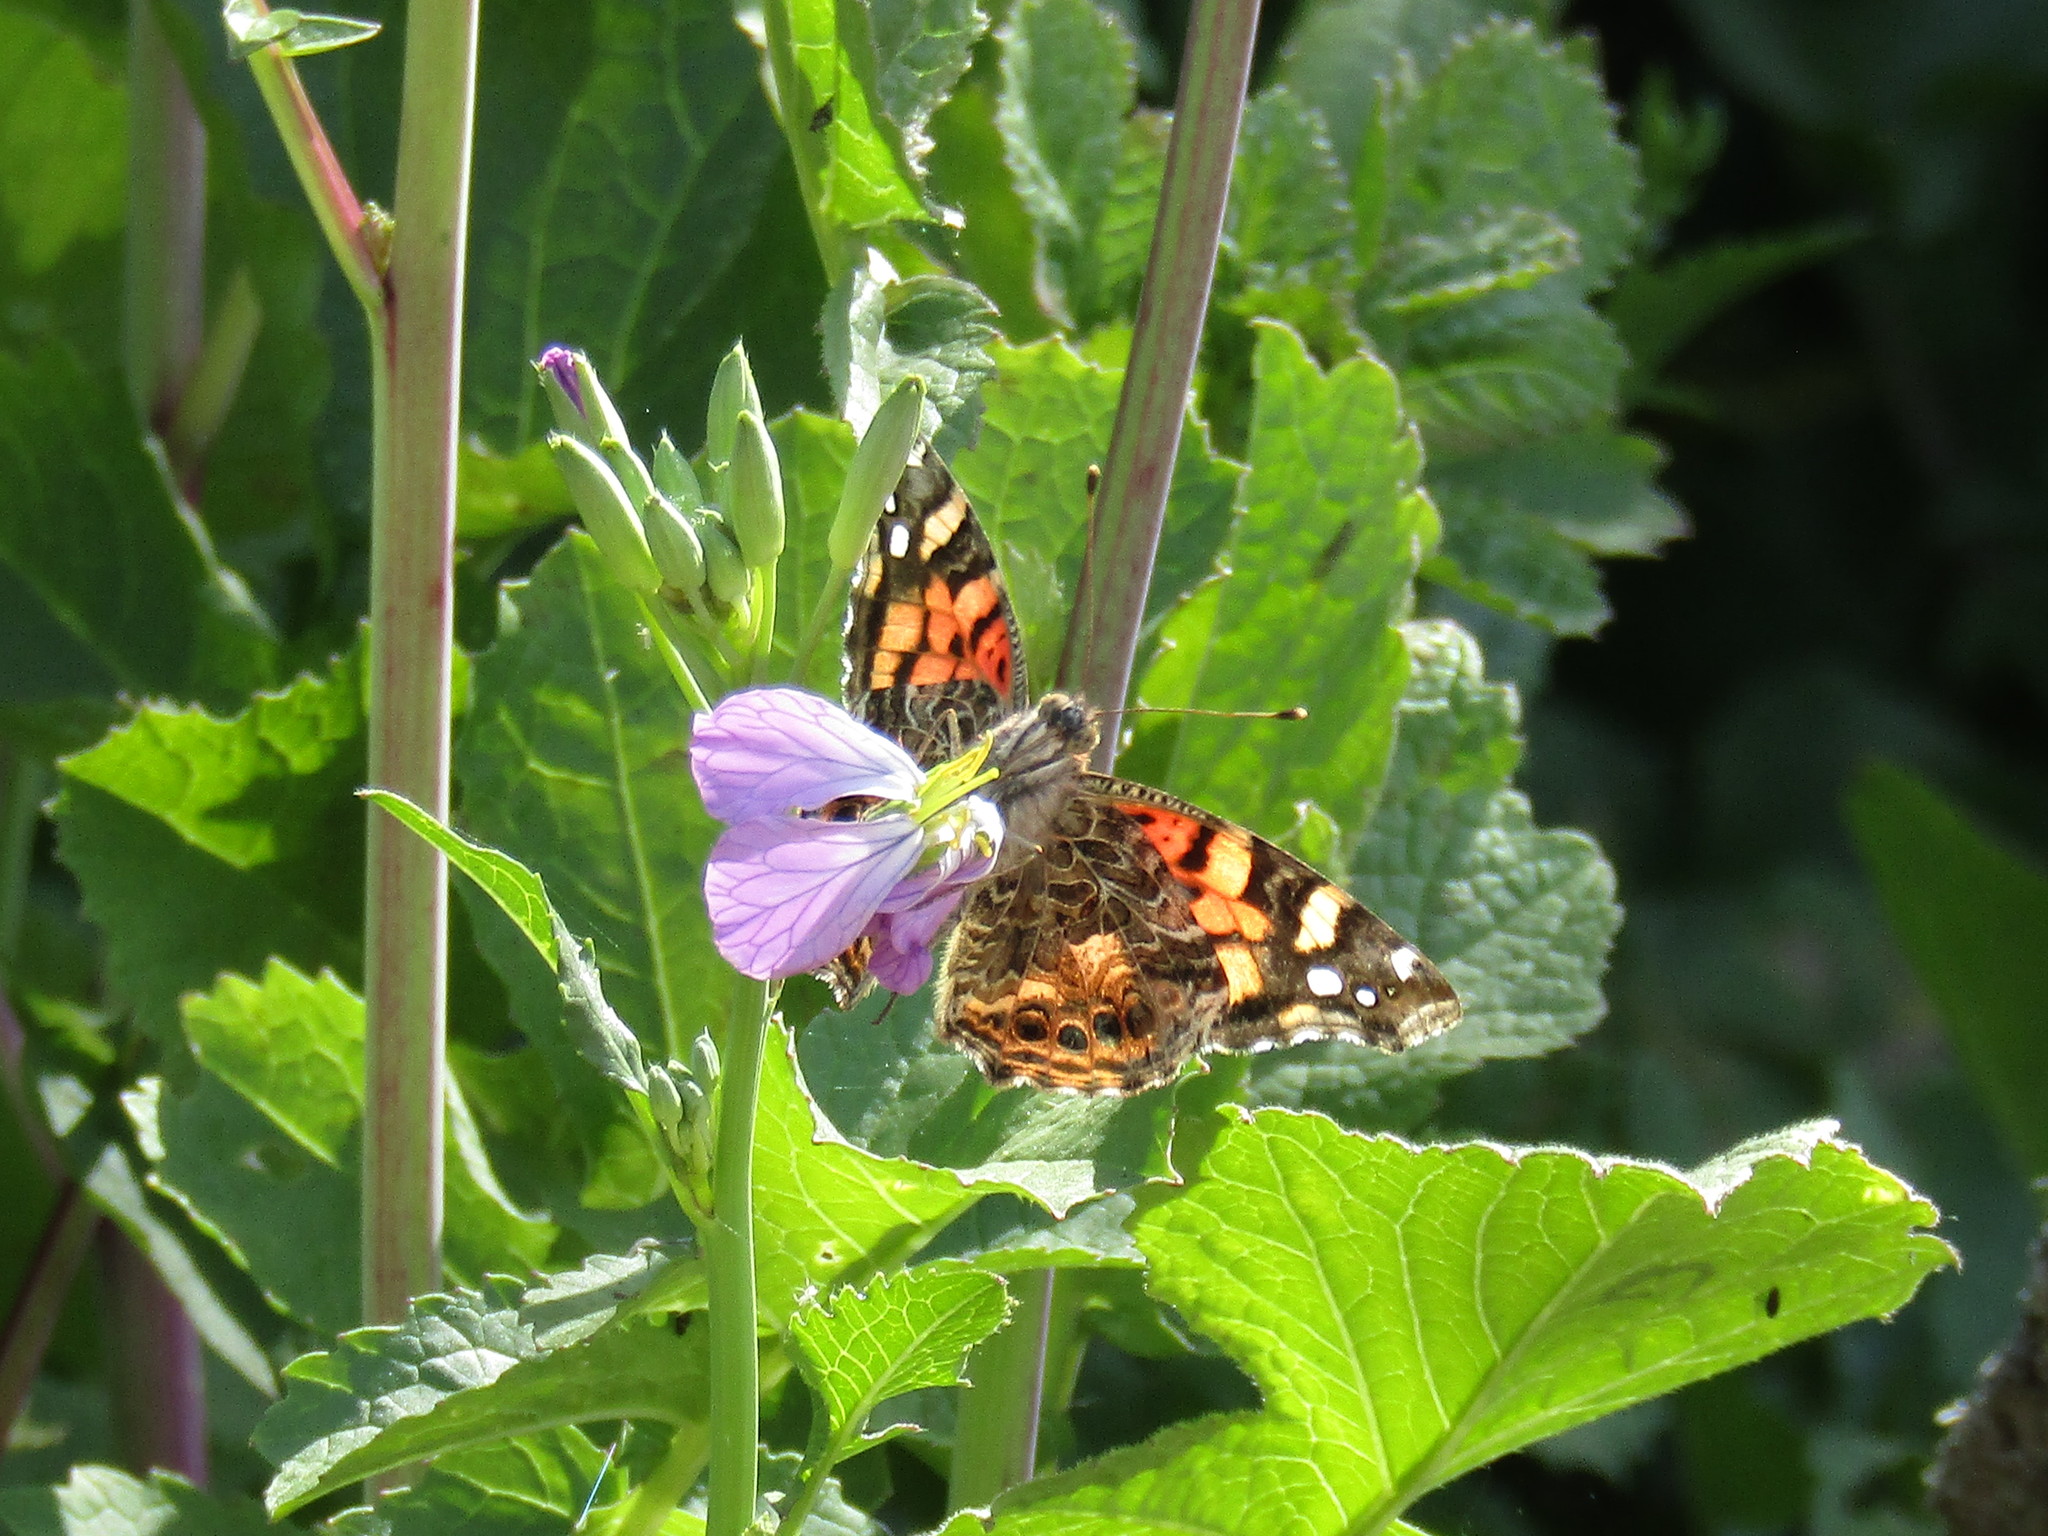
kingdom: Animalia
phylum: Arthropoda
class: Insecta
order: Lepidoptera
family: Nymphalidae
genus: Vanessa
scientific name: Vanessa carye
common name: Subtropical lady
